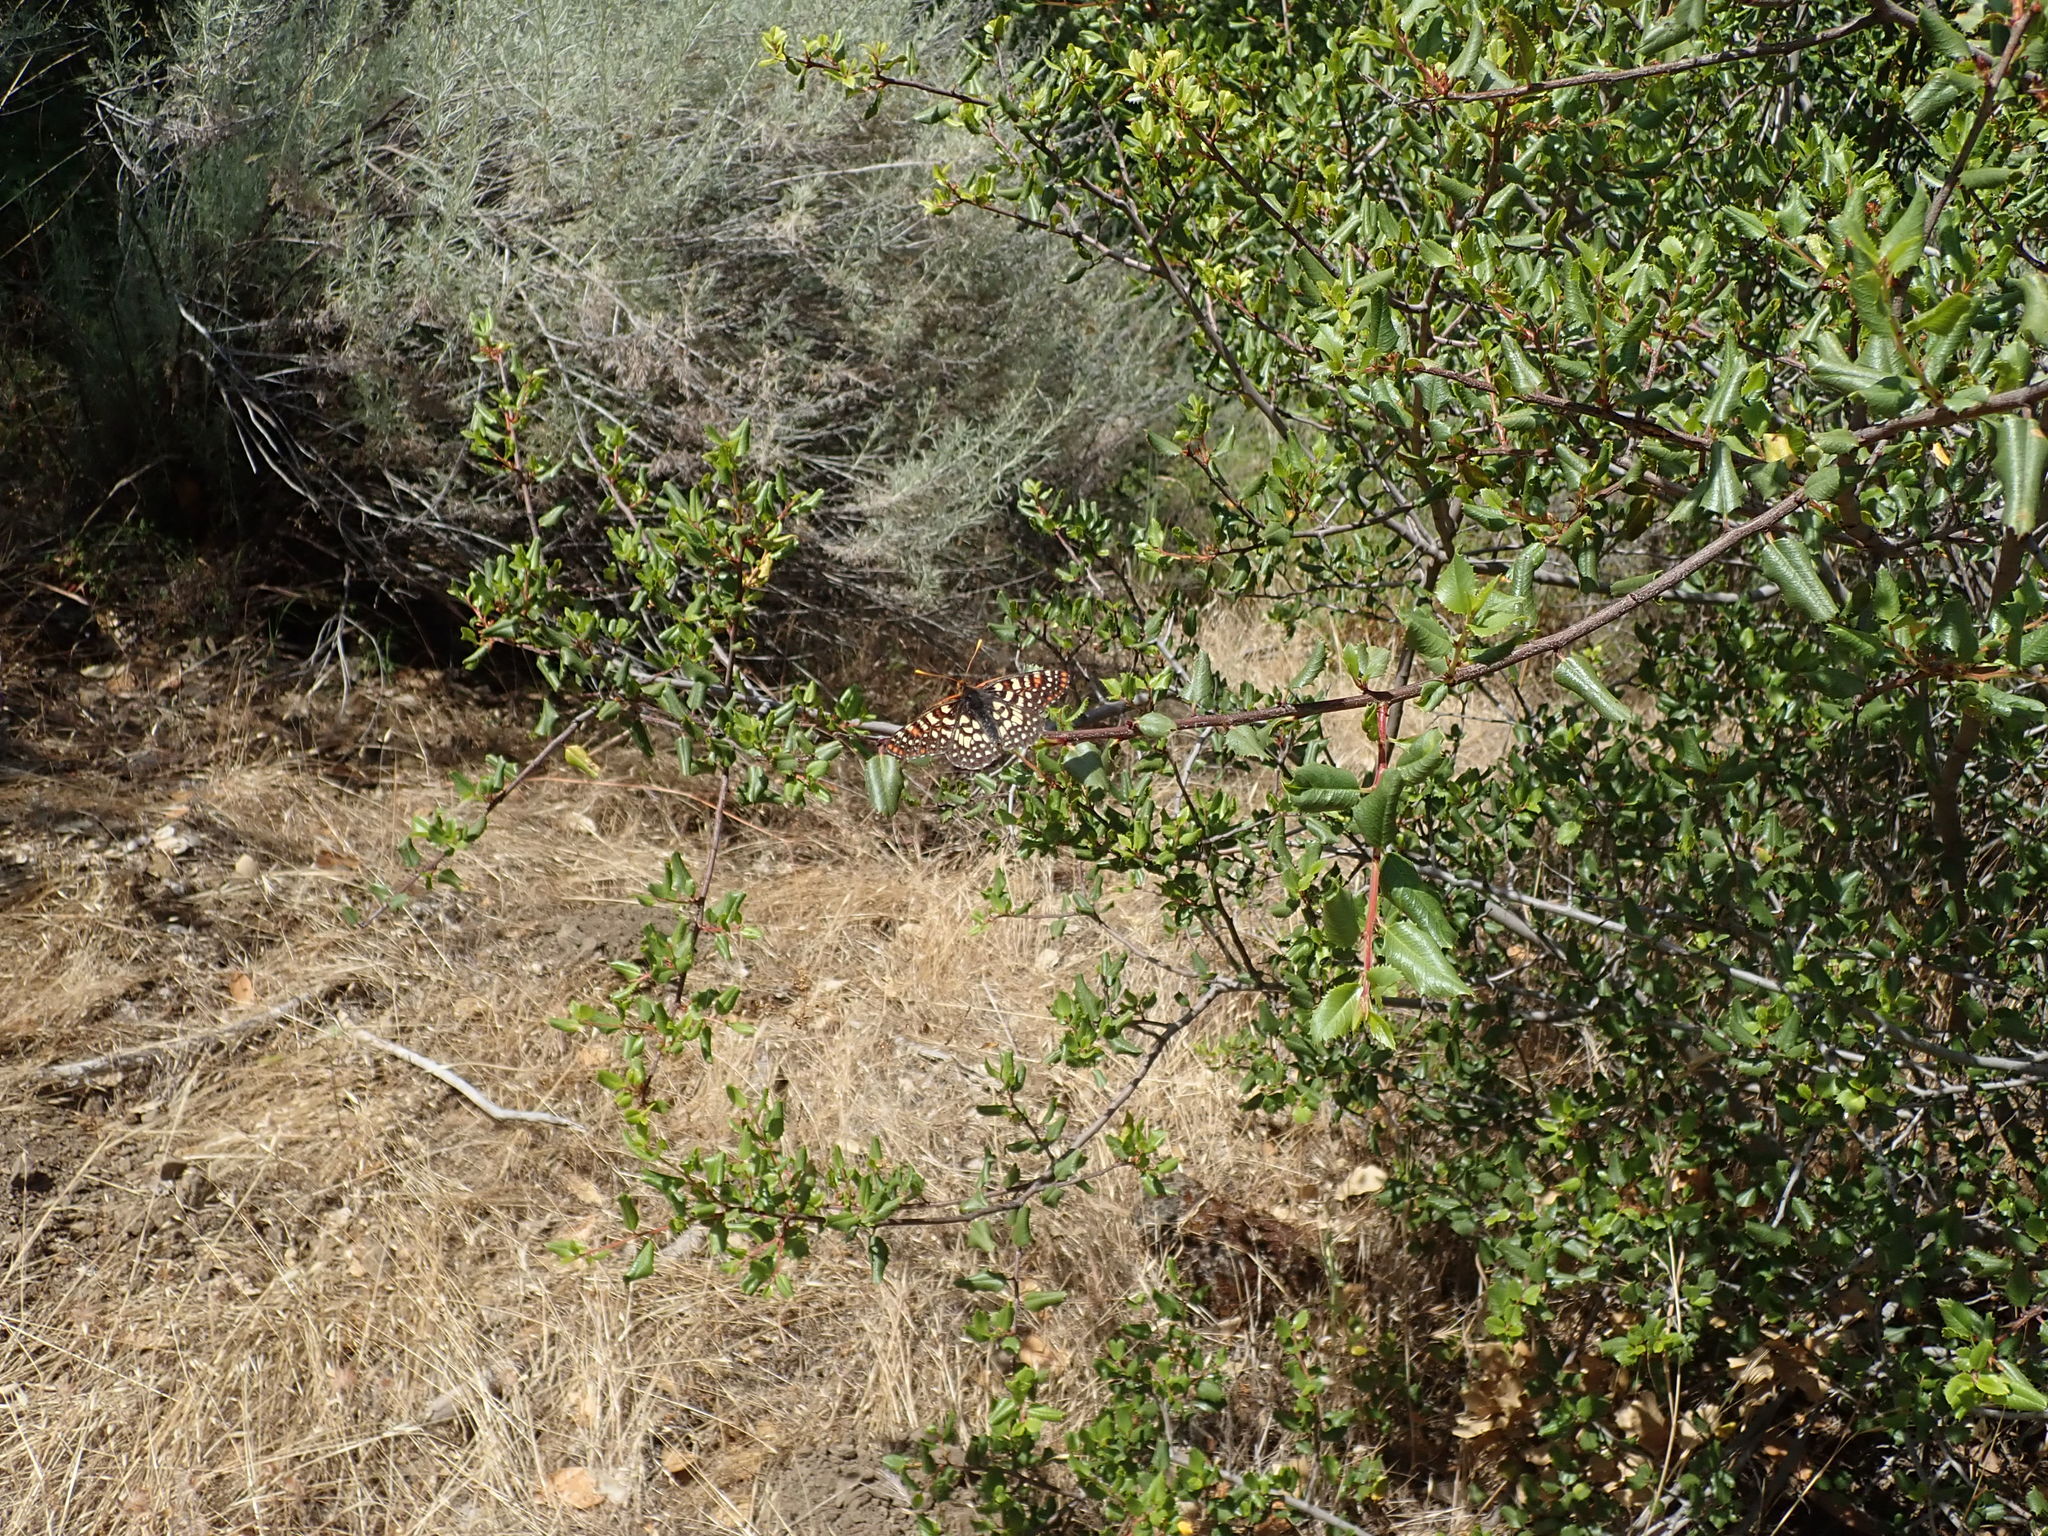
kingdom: Animalia
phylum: Arthropoda
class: Insecta
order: Lepidoptera
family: Nymphalidae
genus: Occidryas
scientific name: Occidryas chalcedona
